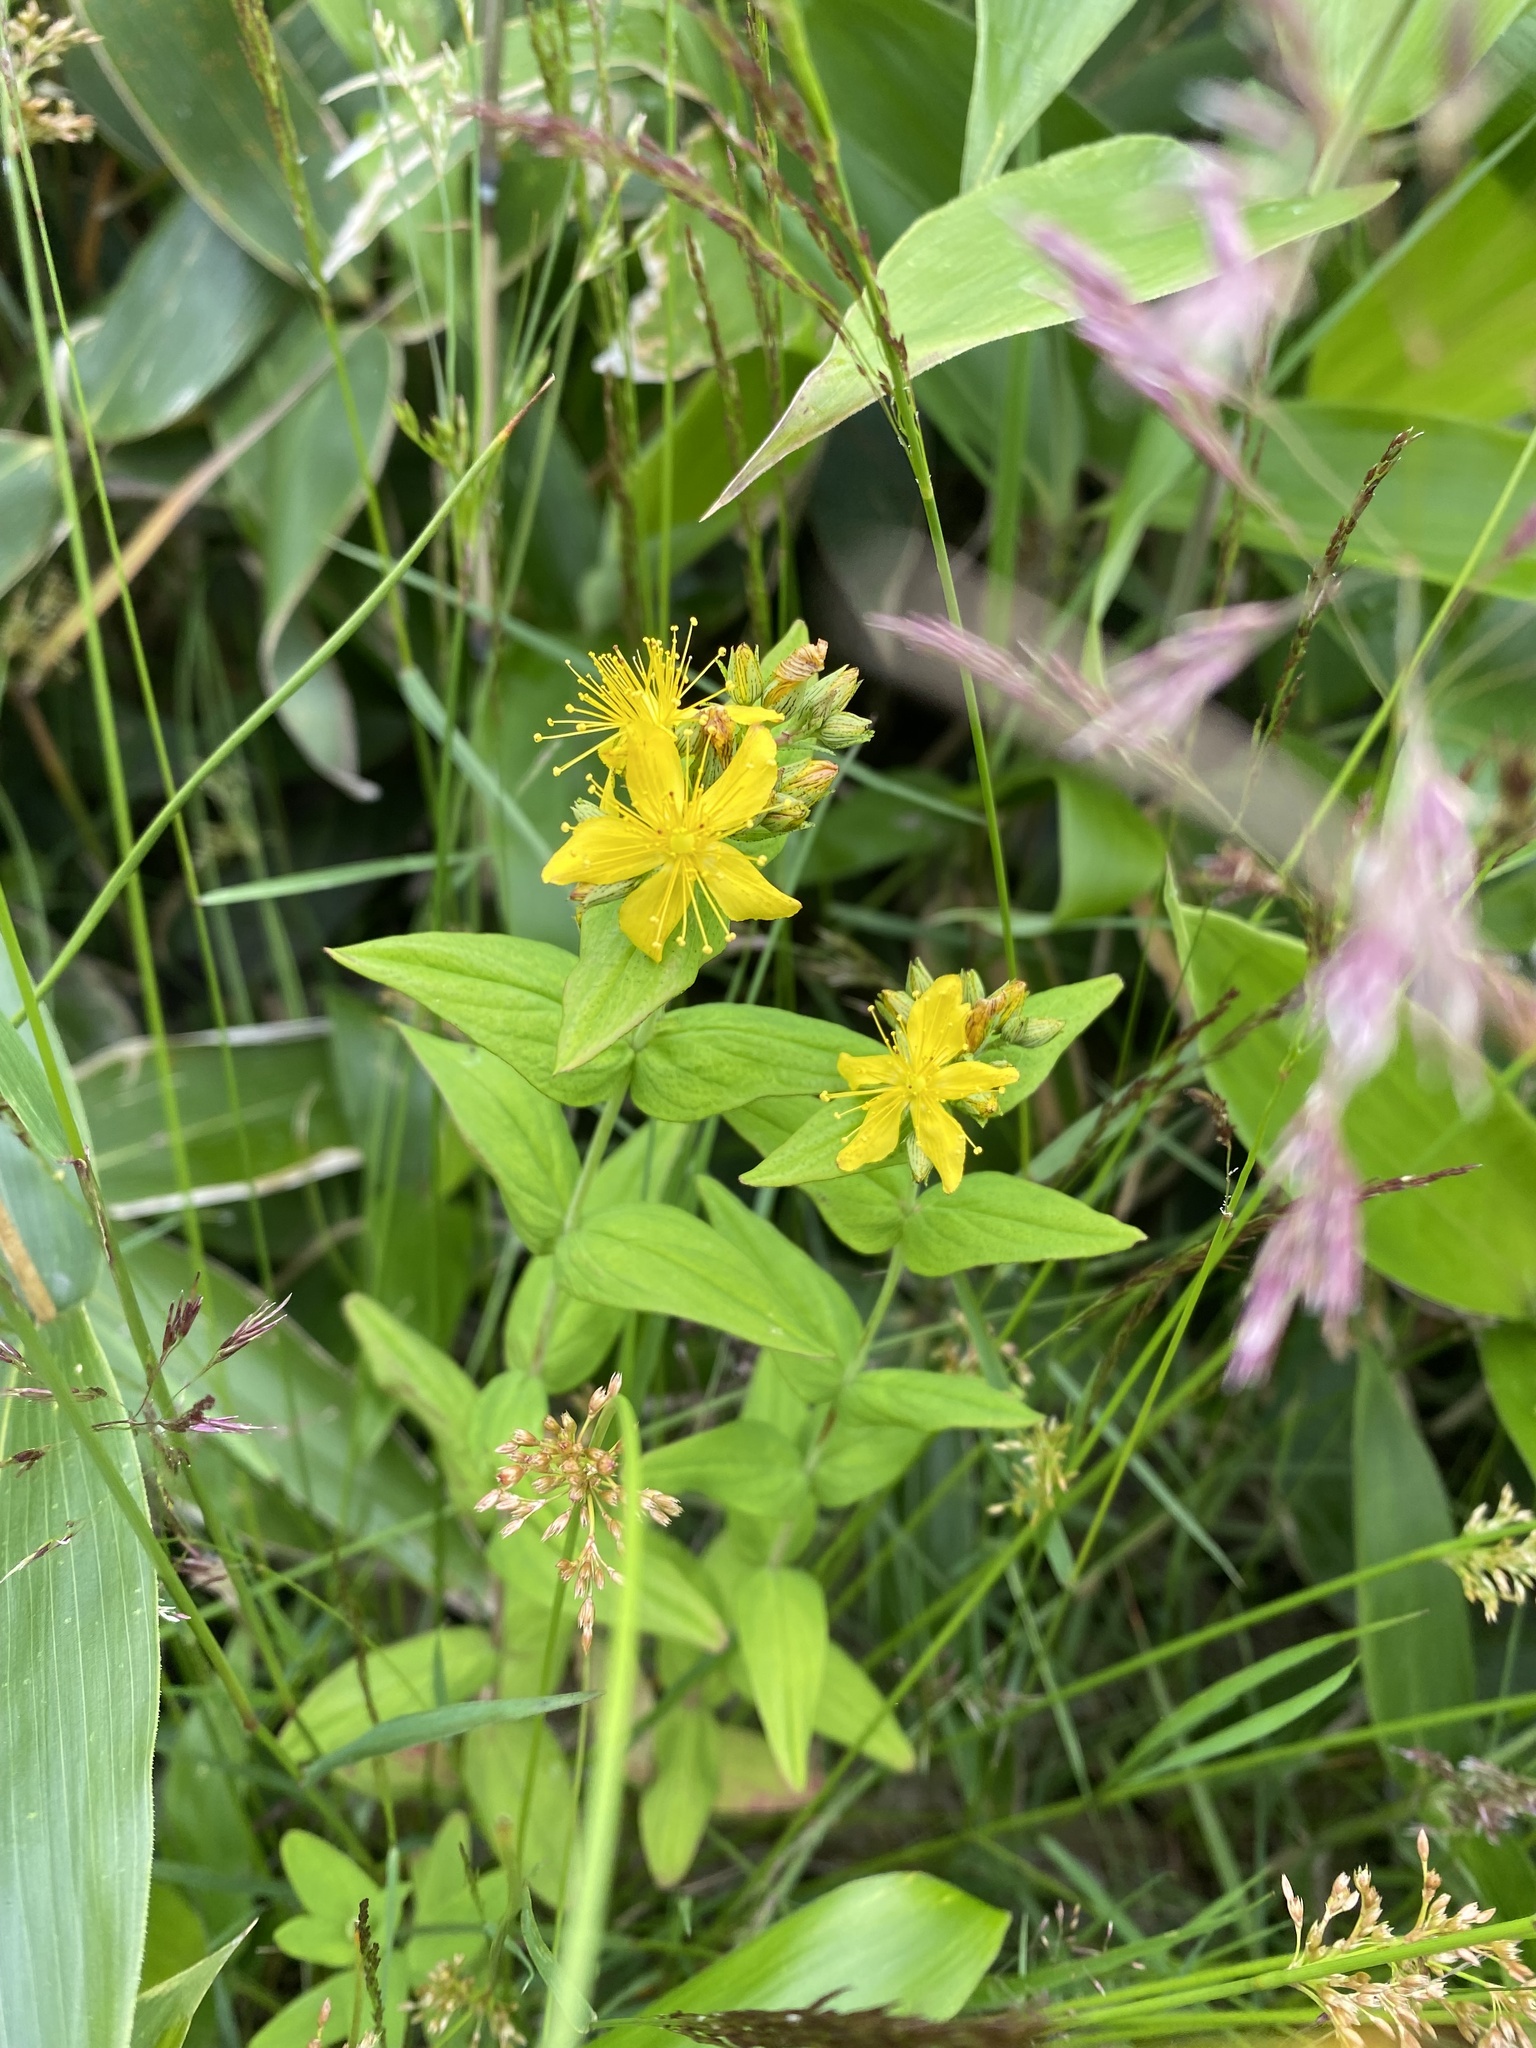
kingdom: Plantae
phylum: Tracheophyta
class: Magnoliopsida
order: Malpighiales
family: Hypericaceae
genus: Hypericum
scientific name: Hypericum kamtschaticum
